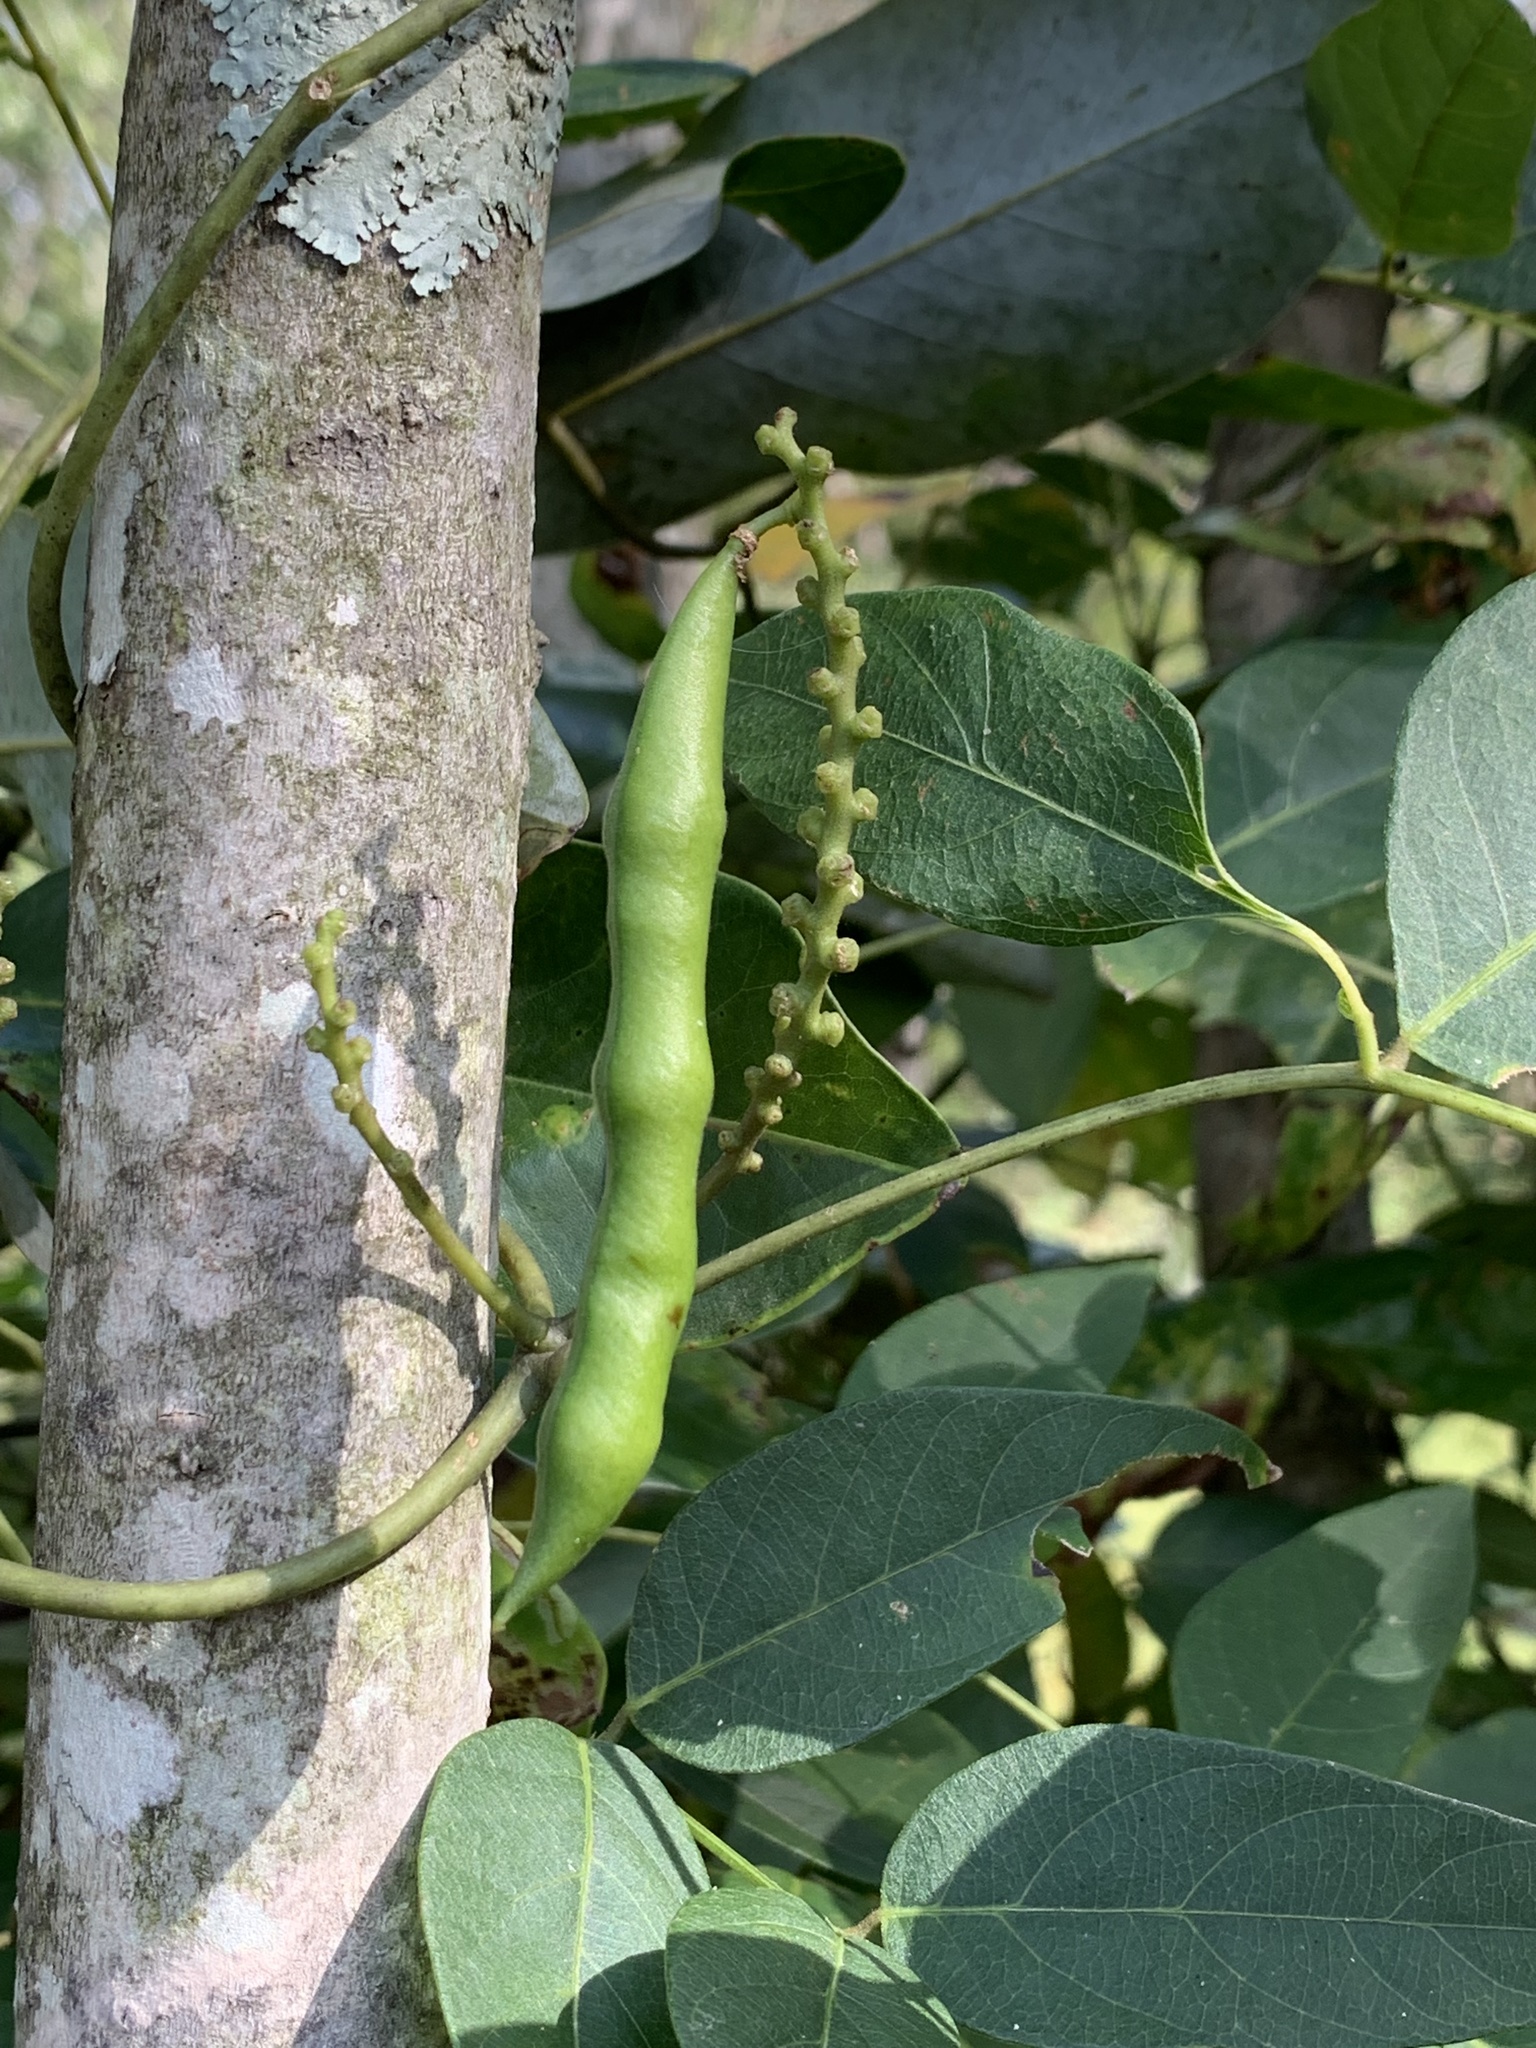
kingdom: Plantae
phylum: Tracheophyta
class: Magnoliopsida
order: Fabales
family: Fabaceae
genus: Apios
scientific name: Apios americana
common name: American potato-bean
